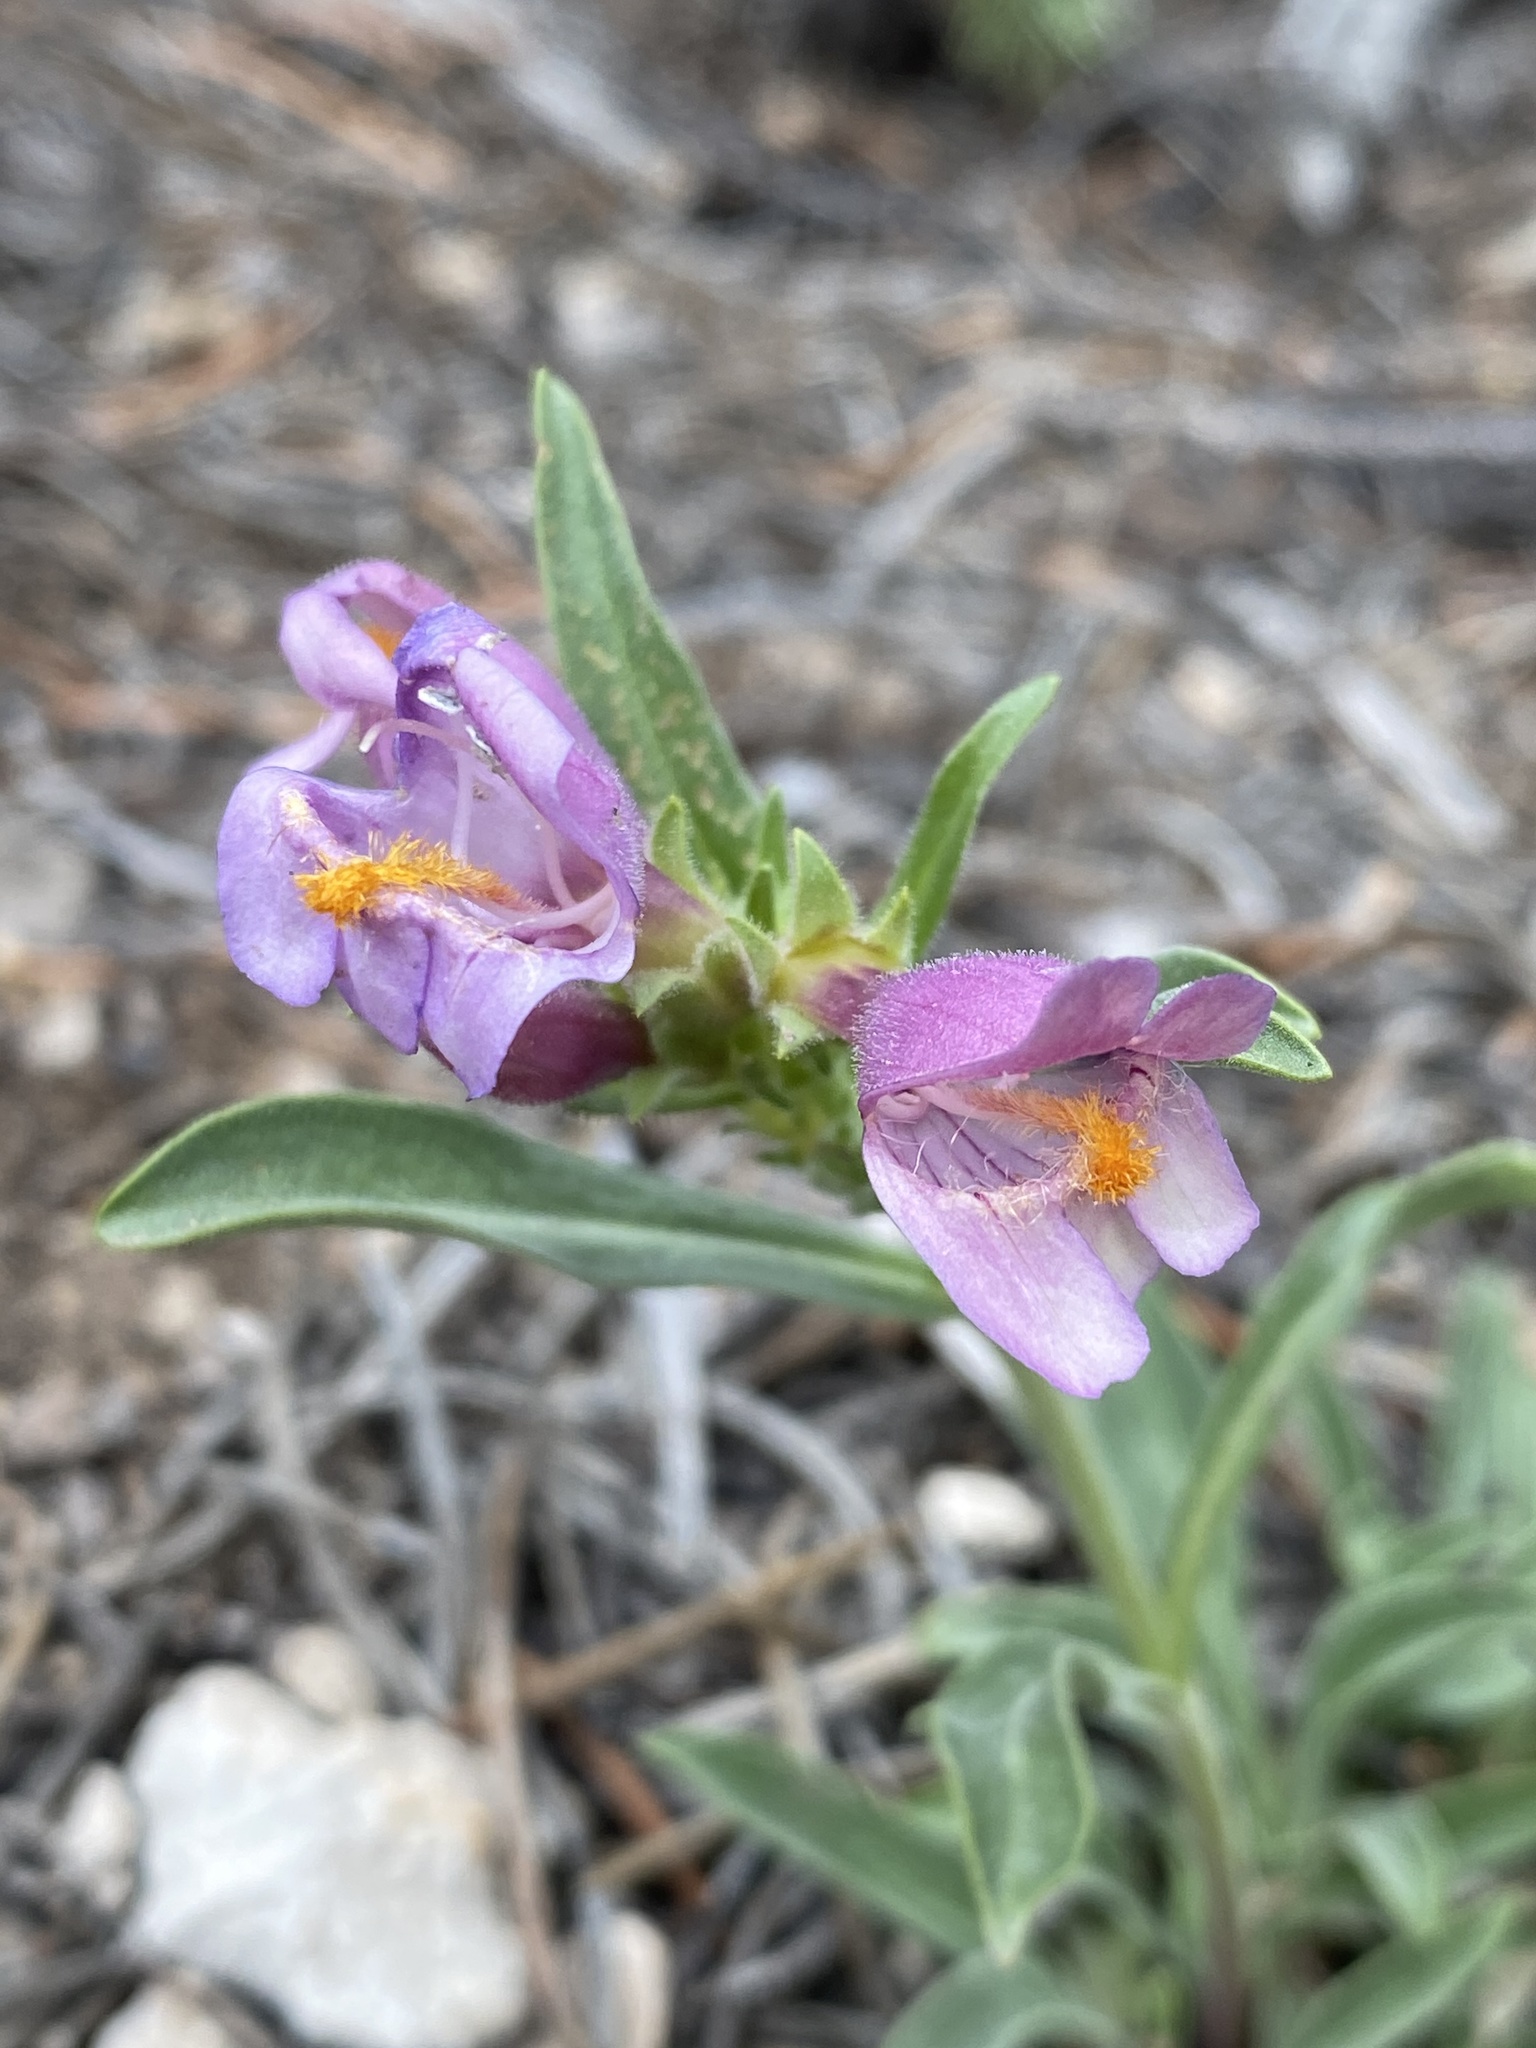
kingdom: Plantae
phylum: Tracheophyta
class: Magnoliopsida
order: Lamiales
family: Plantaginaceae
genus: Penstemon
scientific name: Penstemon janishiae
